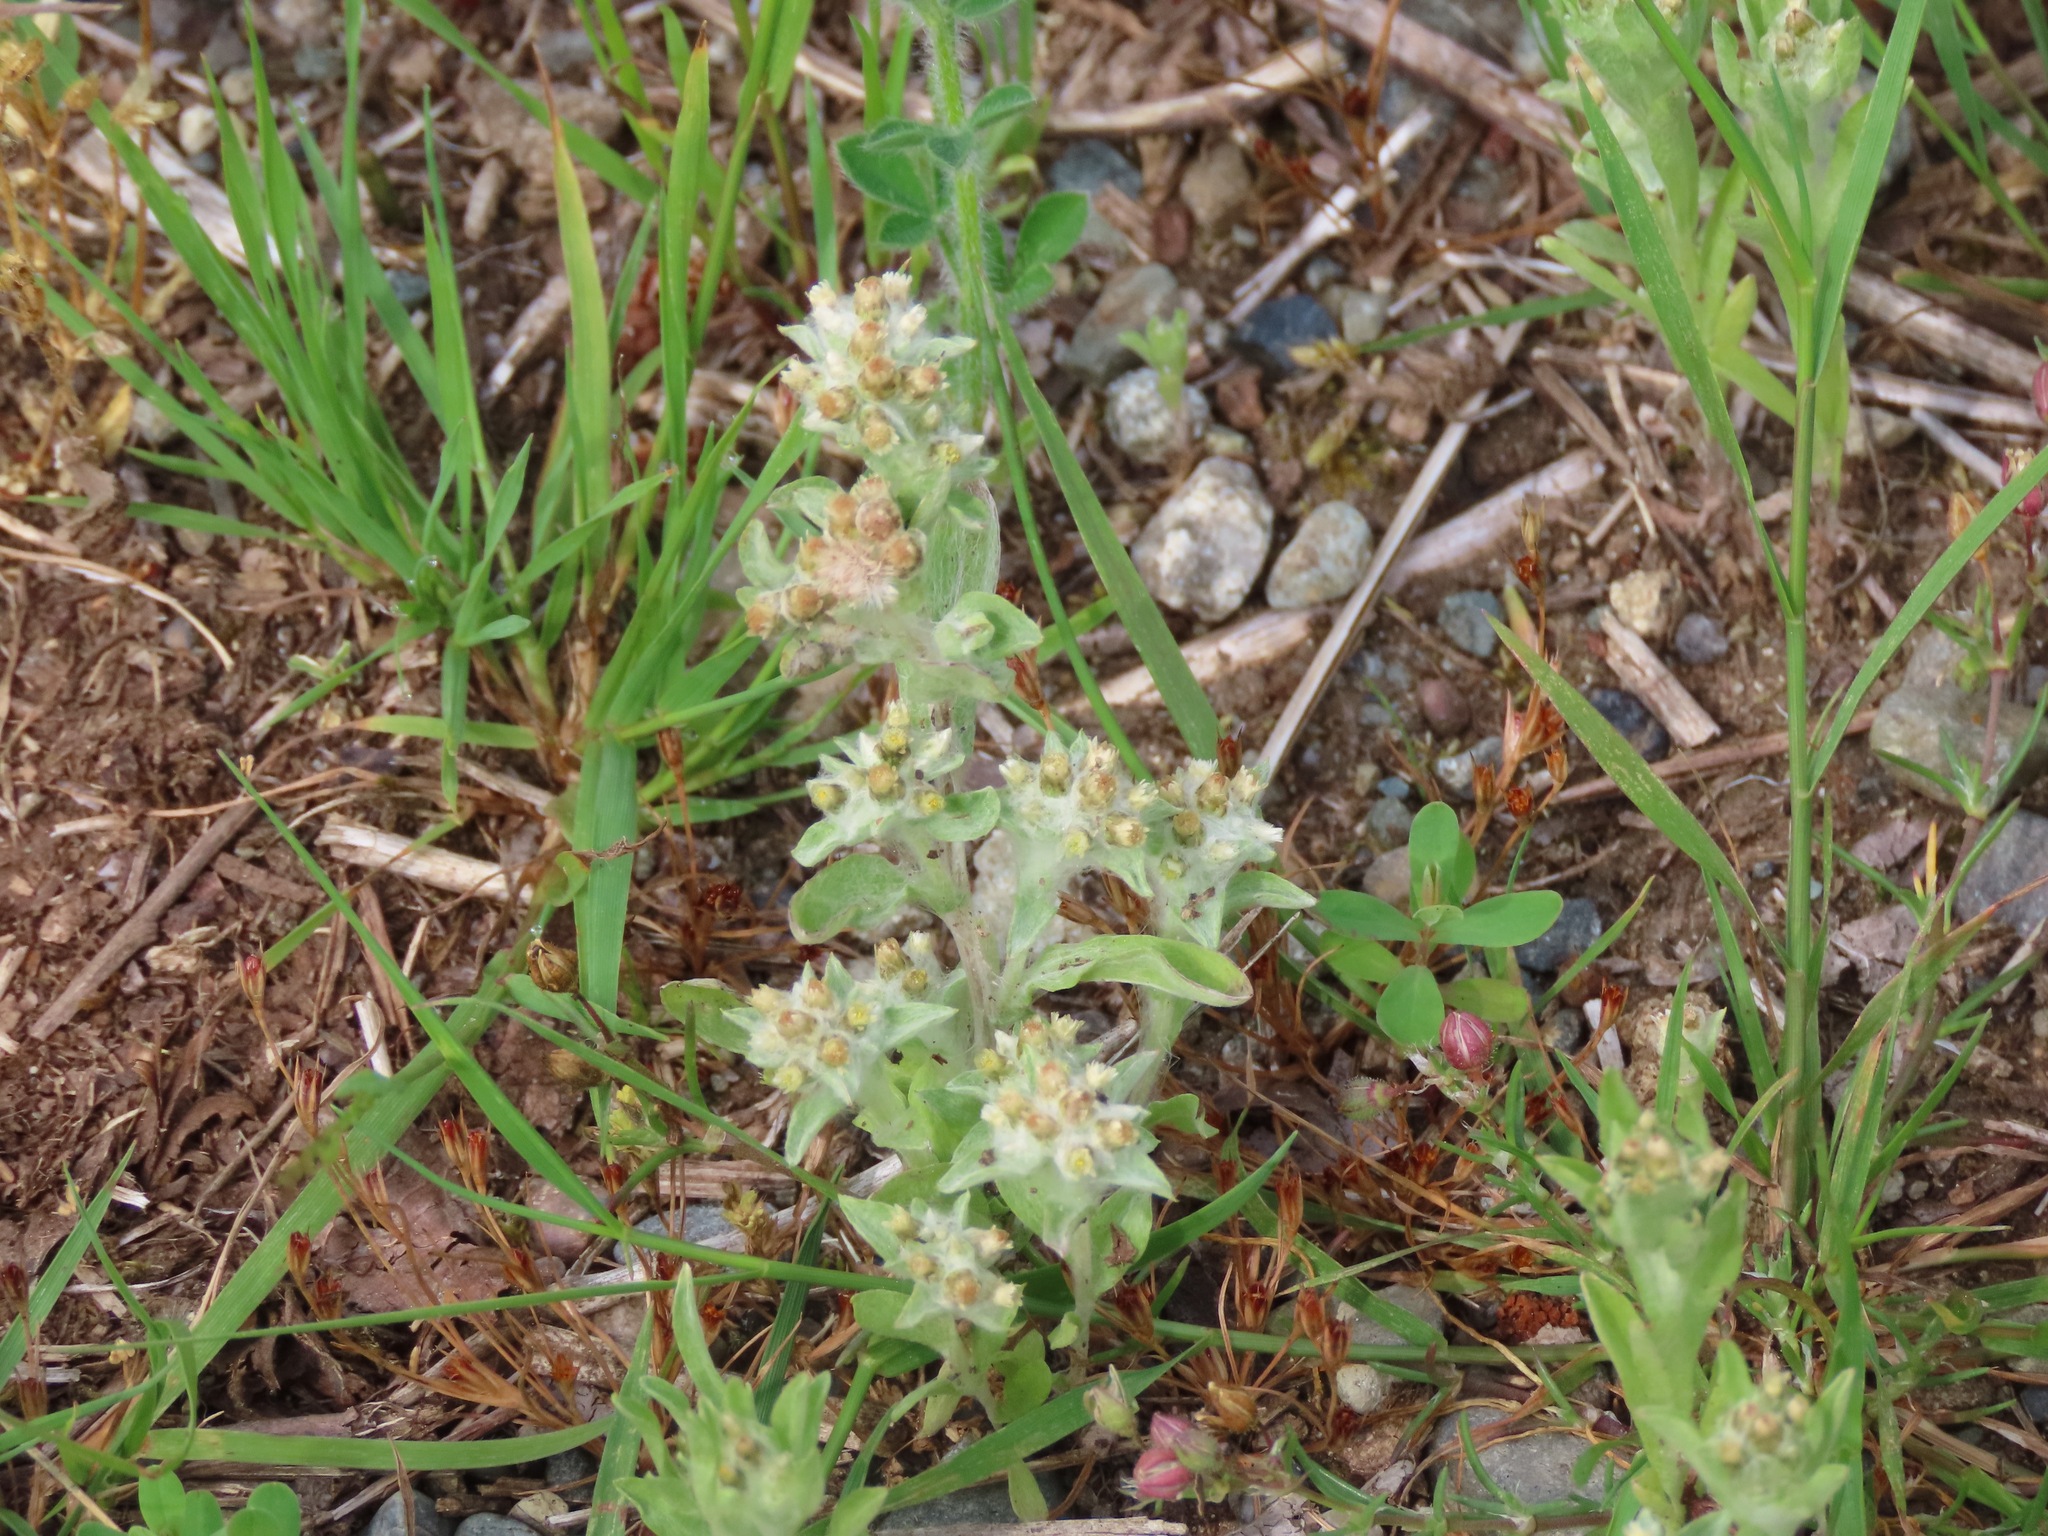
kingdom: Plantae
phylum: Tracheophyta
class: Magnoliopsida
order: Asterales
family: Asteraceae
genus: Gnaphalium
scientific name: Gnaphalium palustre
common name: Western marsh cudweed
